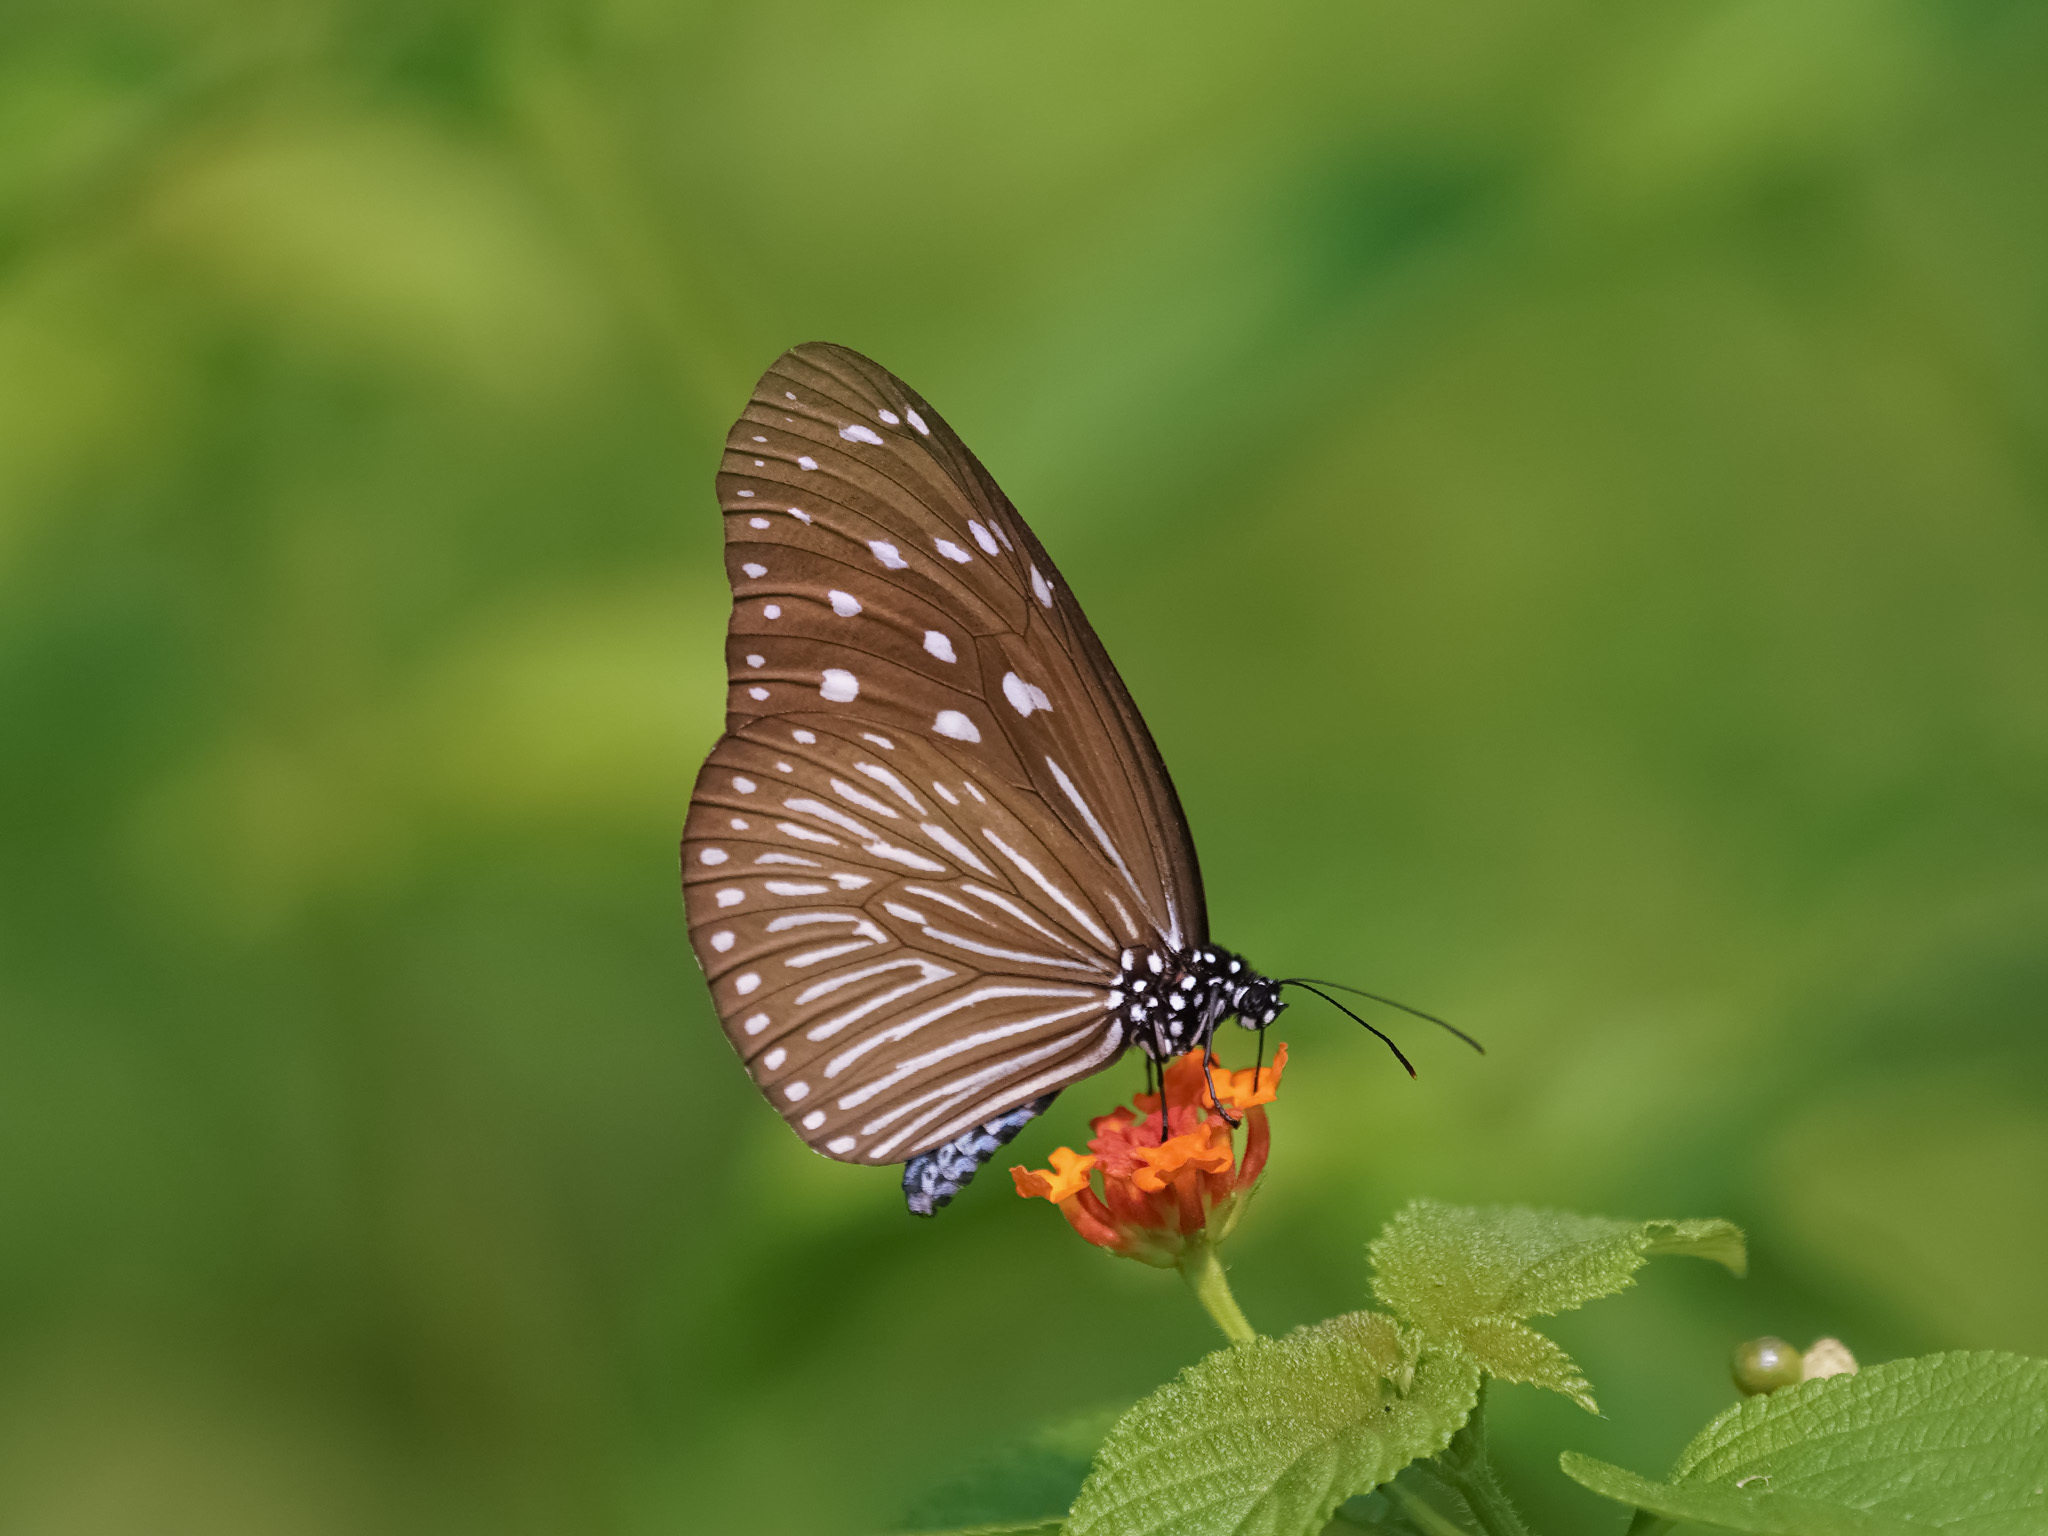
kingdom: Animalia
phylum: Arthropoda
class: Insecta
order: Lepidoptera
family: Nymphalidae
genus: Euploea
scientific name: Euploea mulciber
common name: Striped blue crow butterfly
